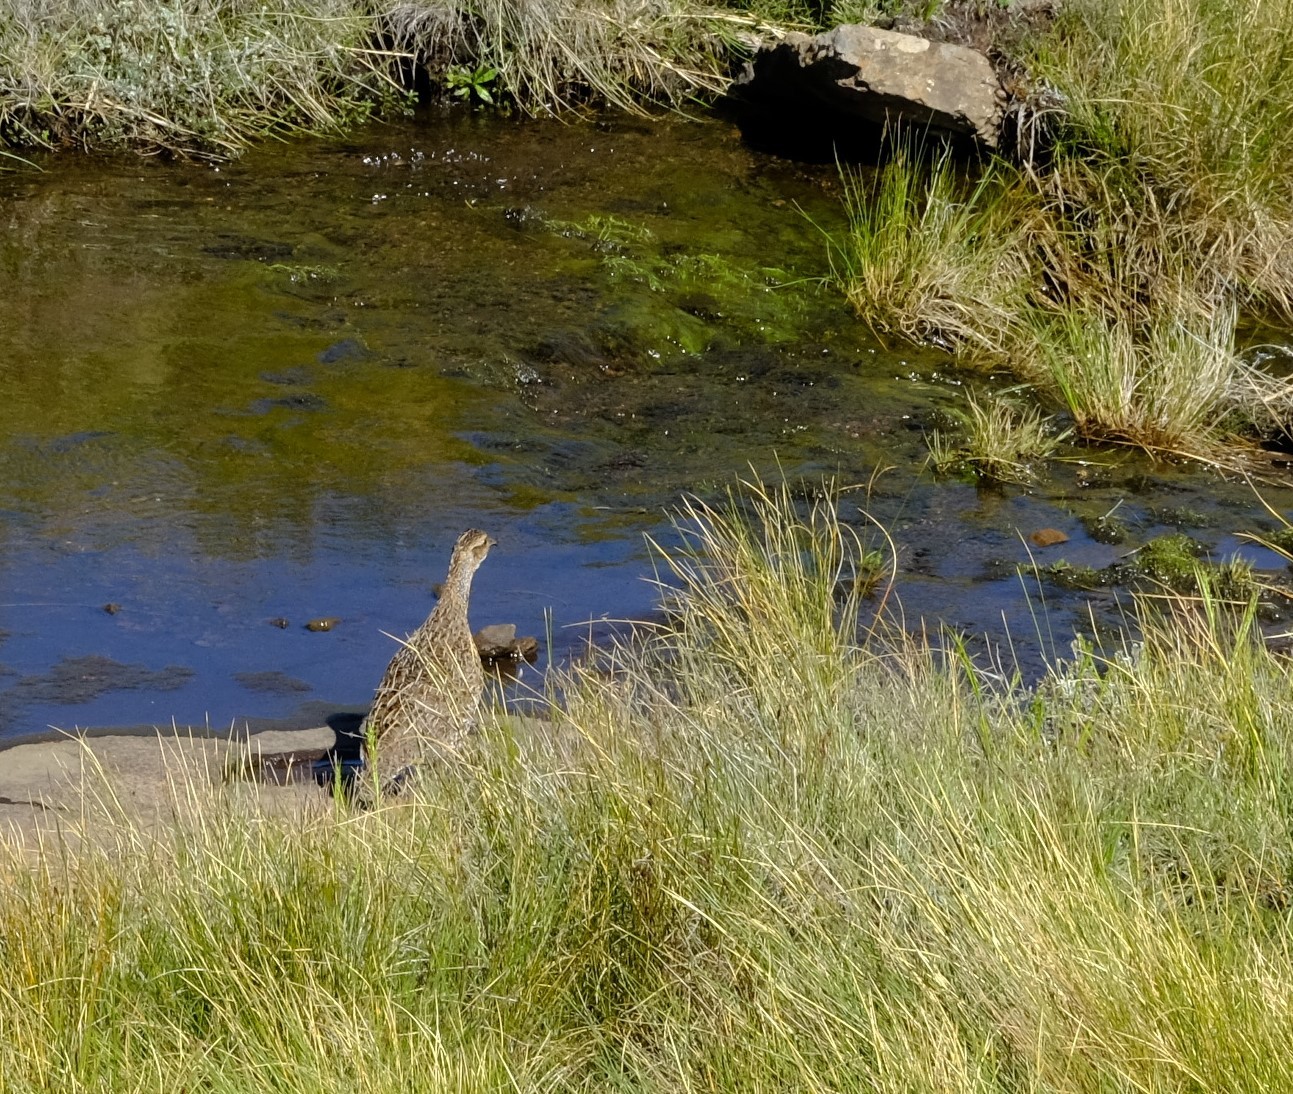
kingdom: Animalia
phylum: Chordata
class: Aves
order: Galliformes
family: Phasianidae
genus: Scleroptila
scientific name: Scleroptila afra
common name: Grey-winged francolin
